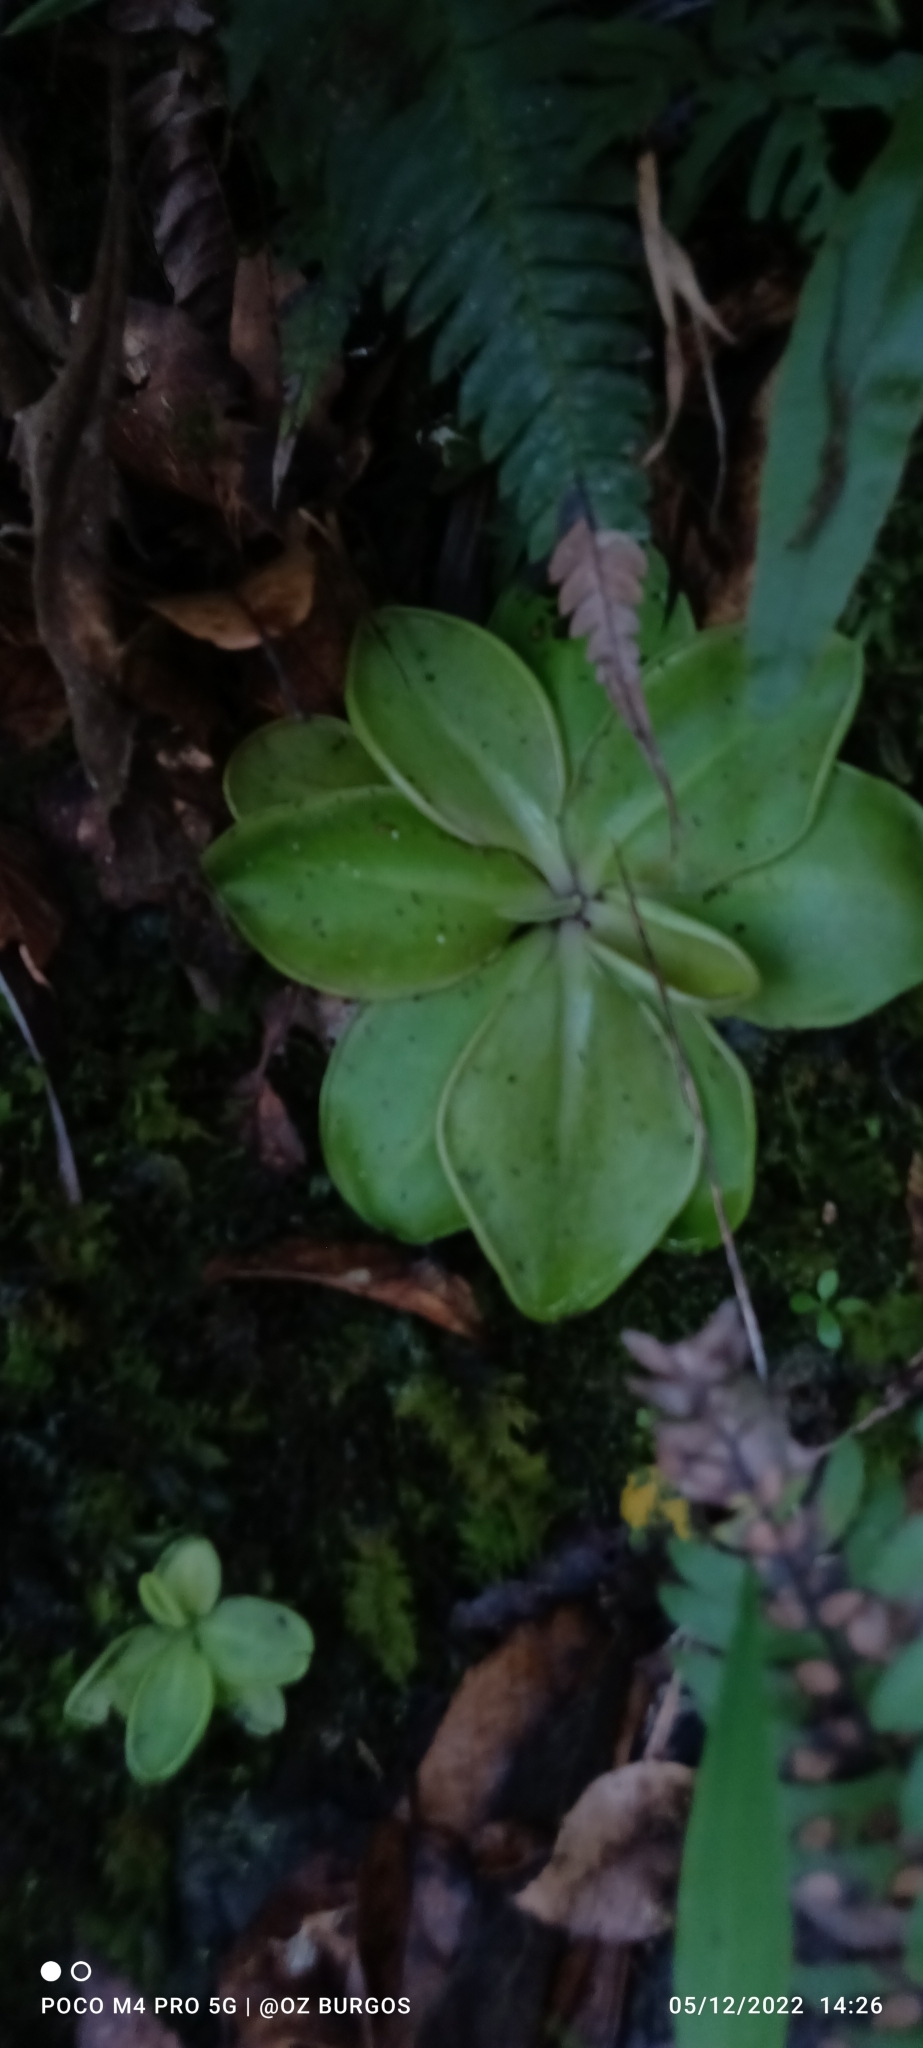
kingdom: Plantae
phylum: Tracheophyta
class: Magnoliopsida
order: Lamiales
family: Lentibulariaceae
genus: Pinguicula
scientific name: Pinguicula moranensis
